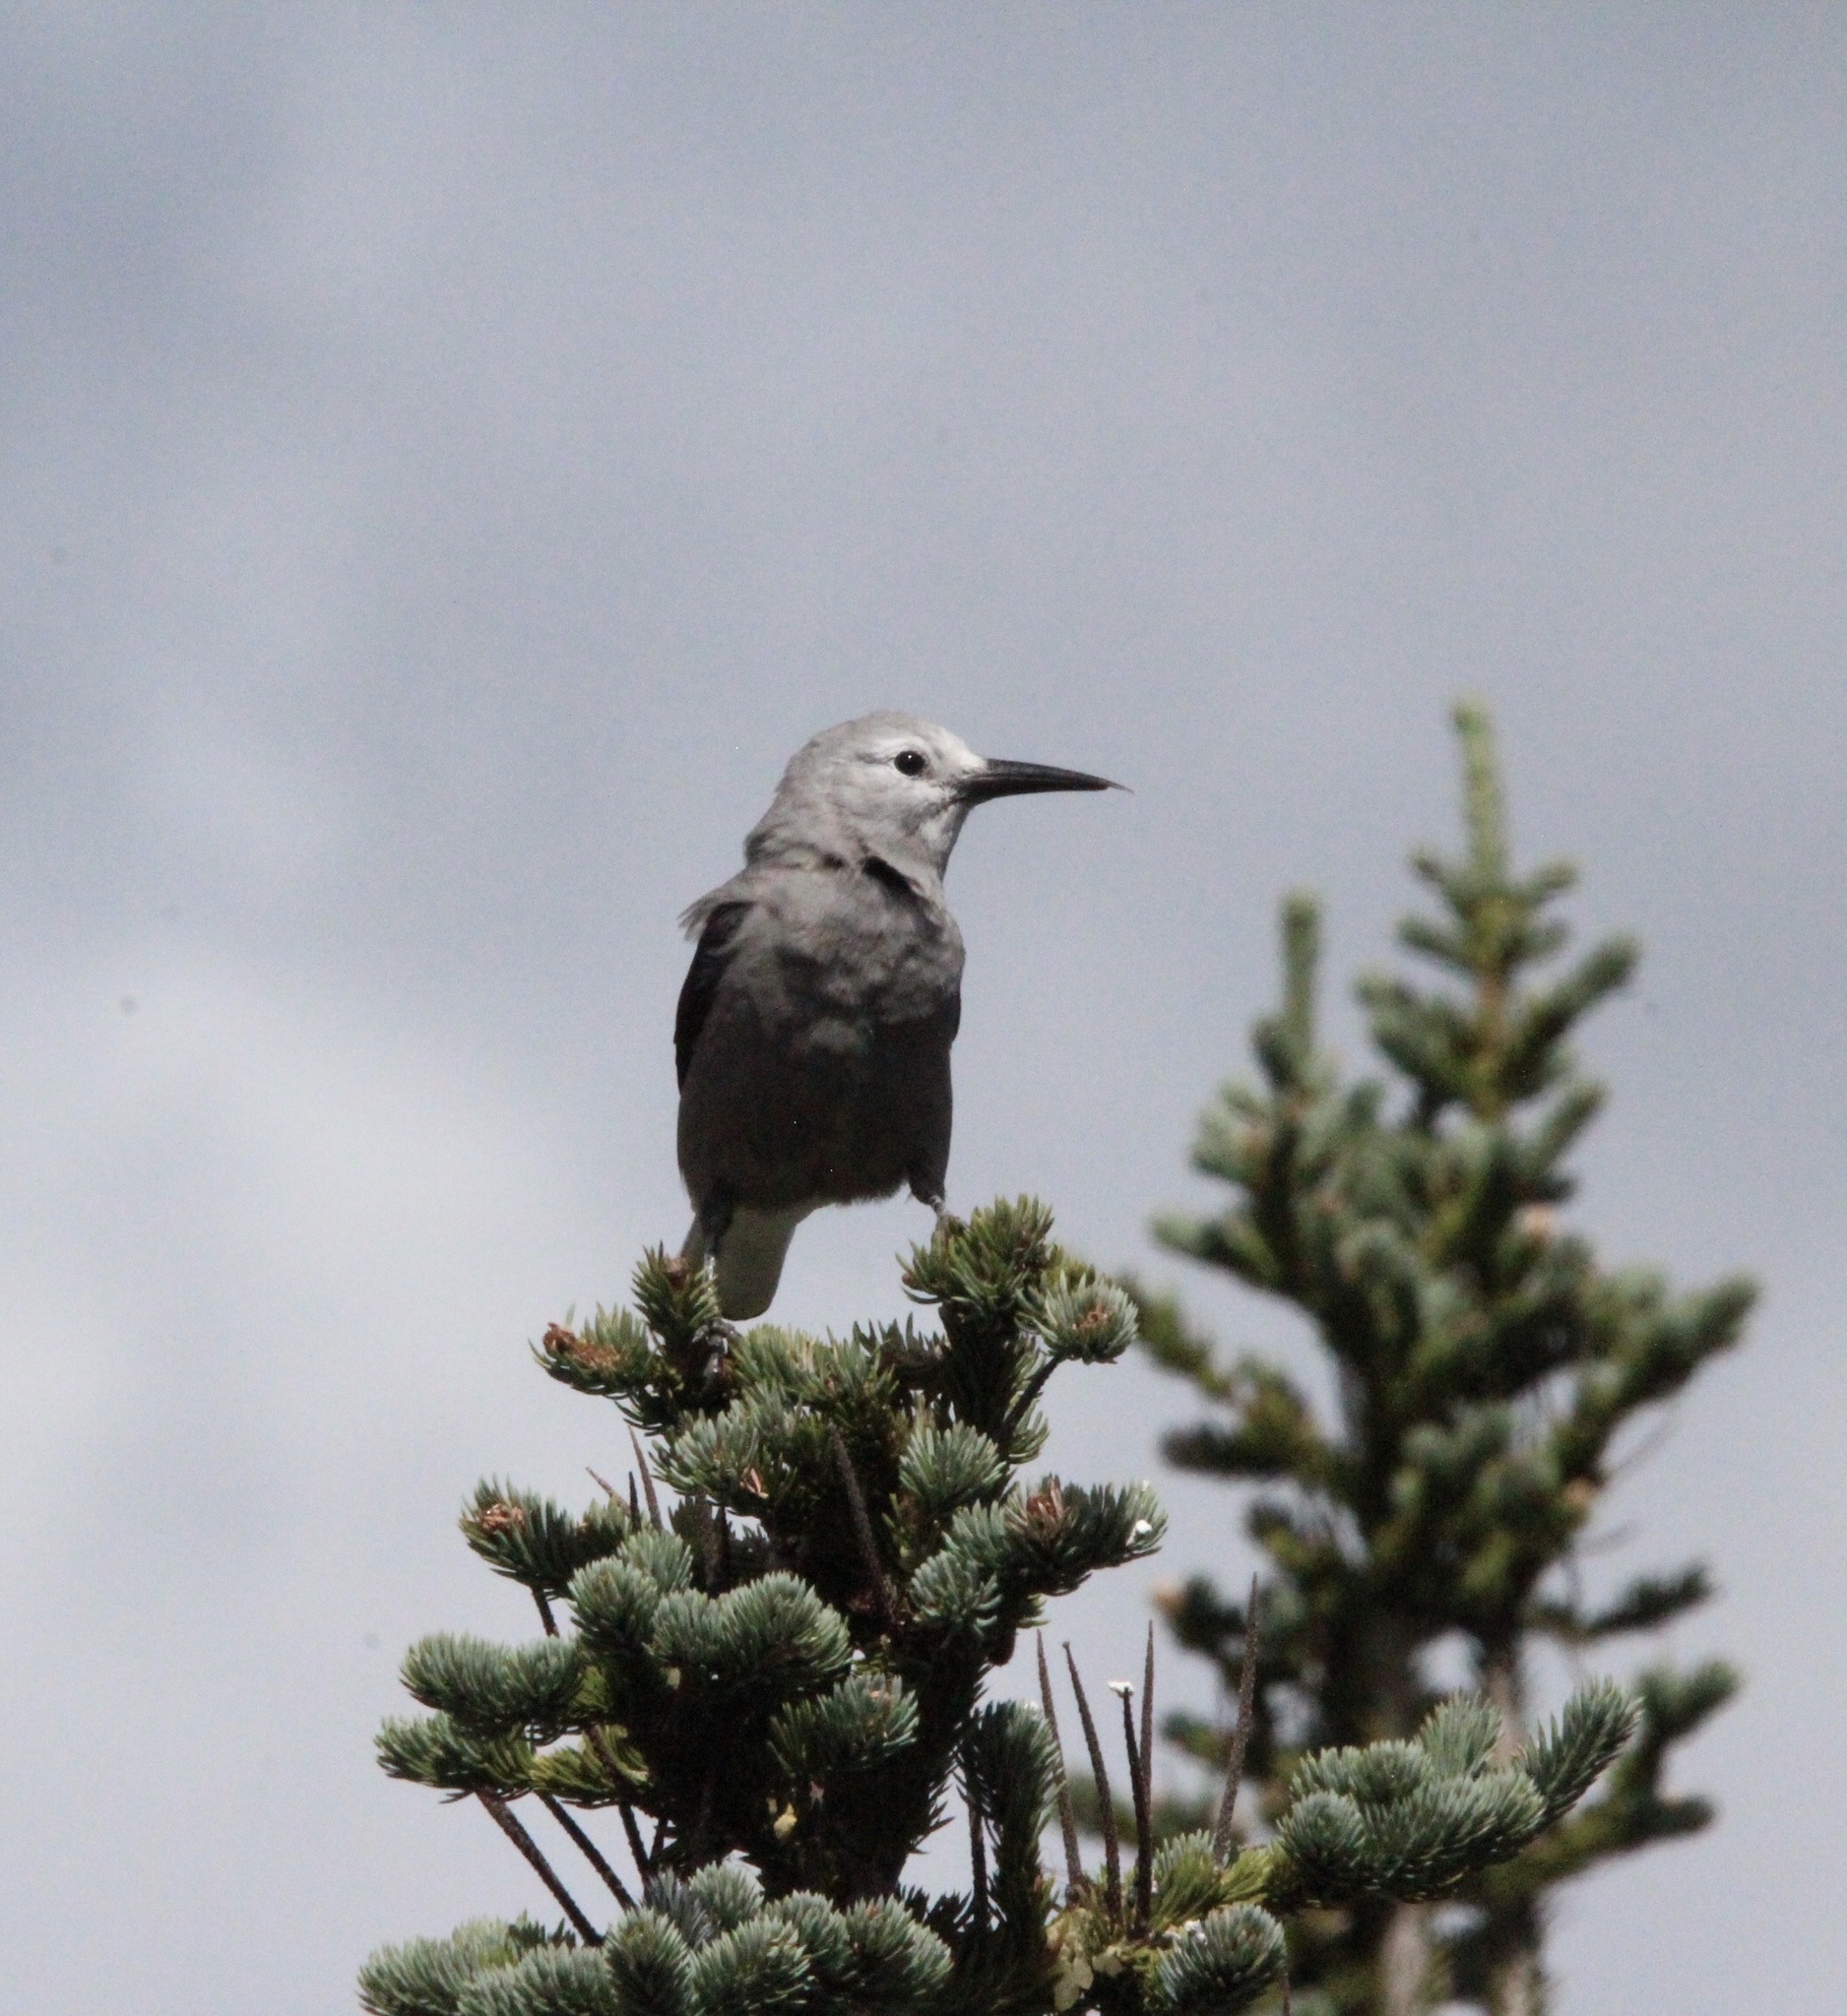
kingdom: Animalia
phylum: Chordata
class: Aves
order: Passeriformes
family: Corvidae
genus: Nucifraga
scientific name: Nucifraga columbiana
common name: Clark's nutcracker
